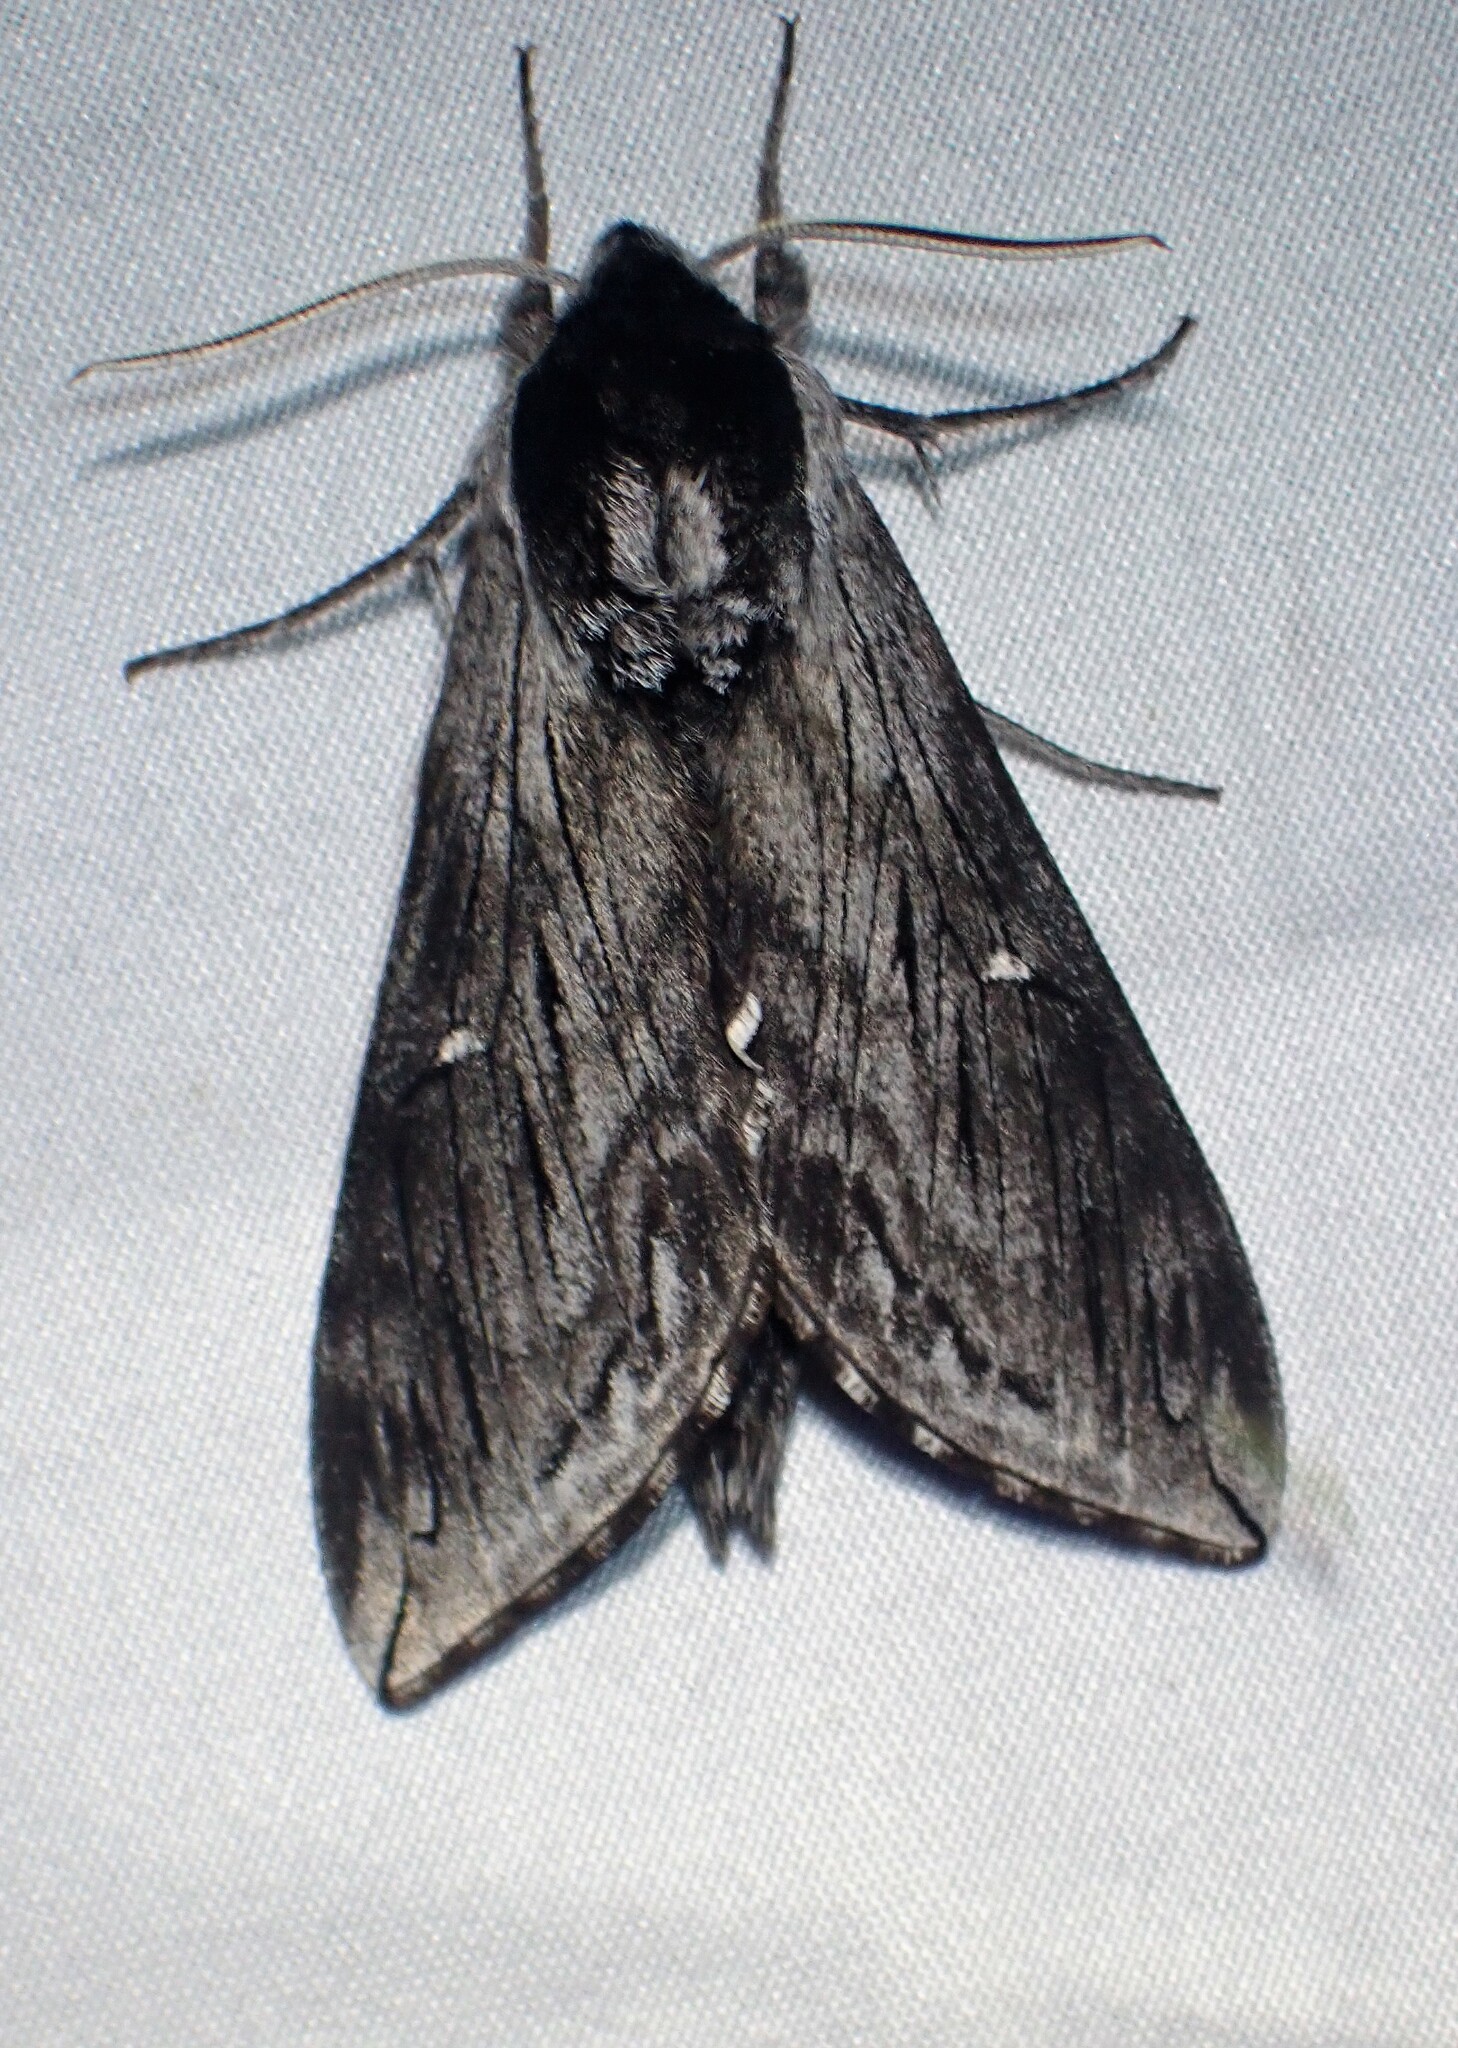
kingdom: Animalia
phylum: Arthropoda
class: Insecta
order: Lepidoptera
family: Sphingidae
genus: Sphinx
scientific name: Sphinx poecila
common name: Northern apple sphinx
